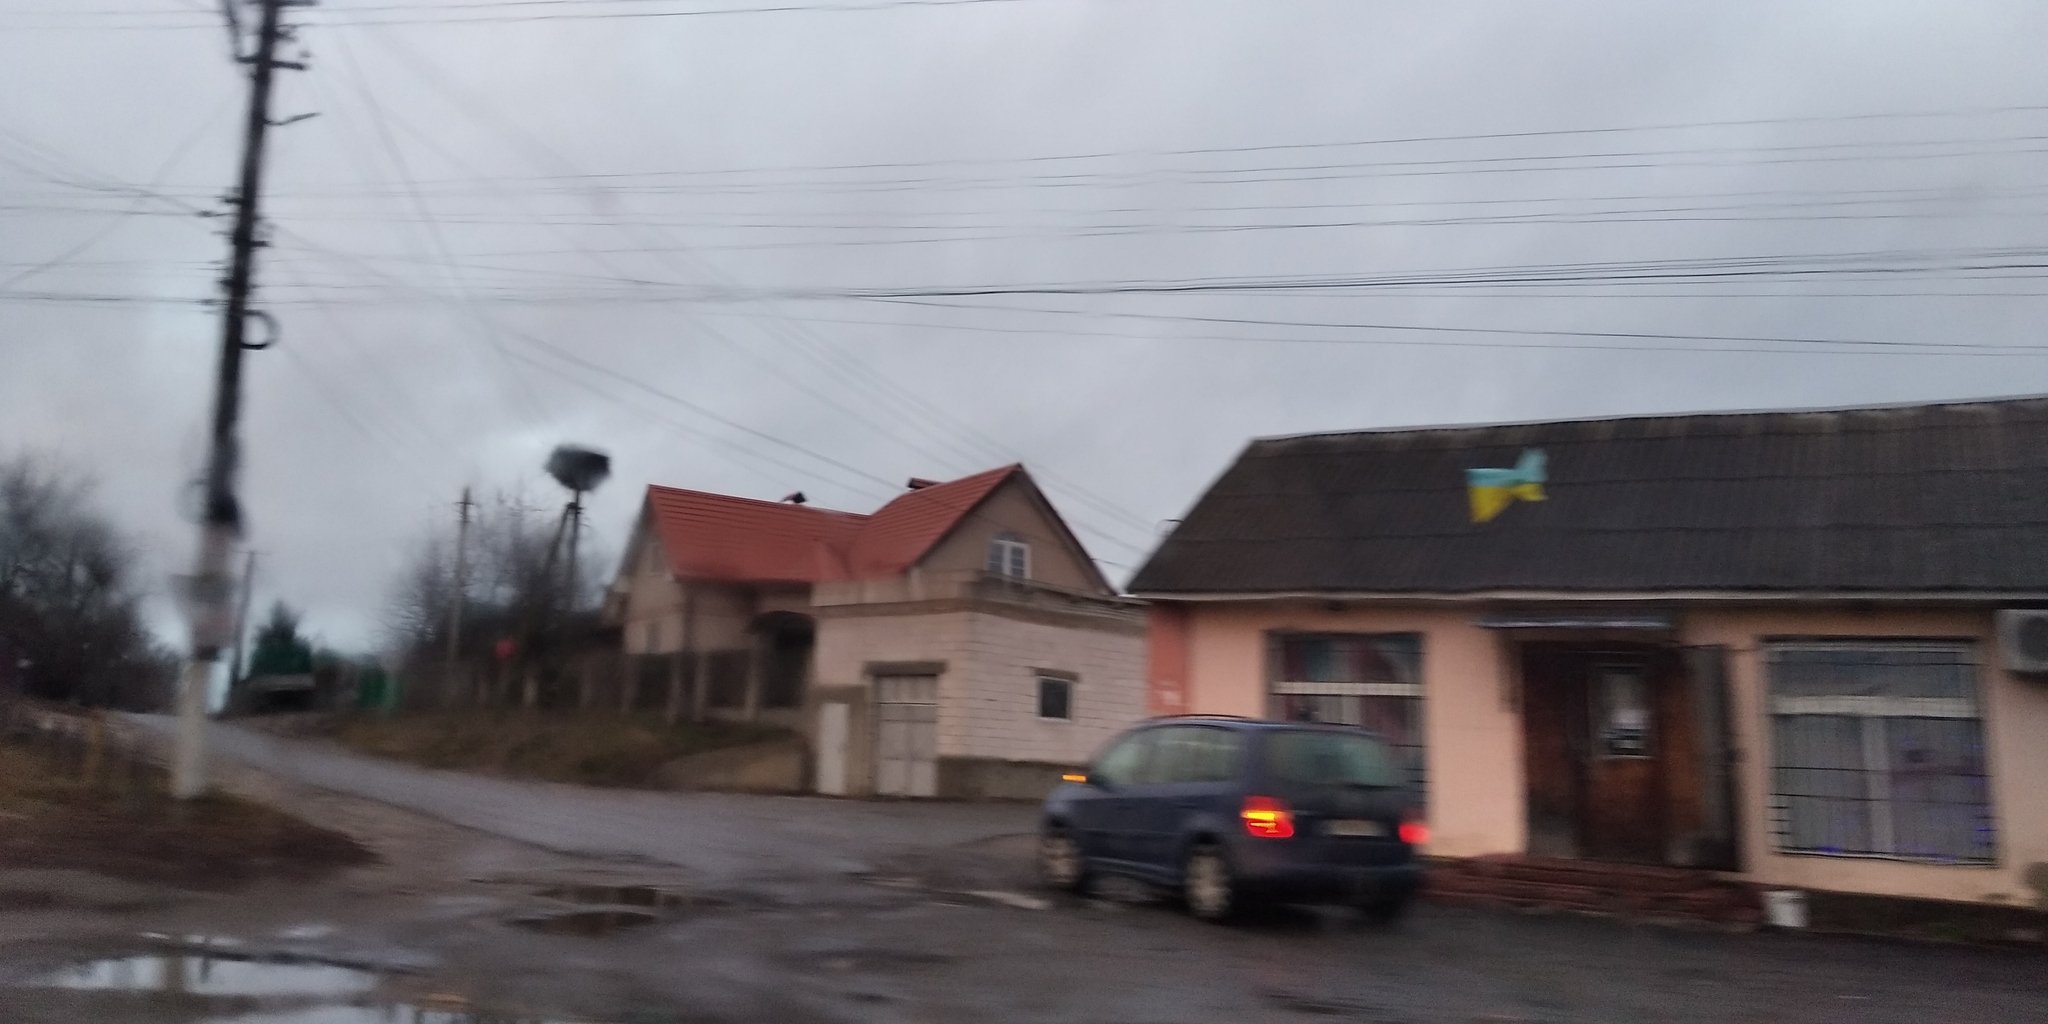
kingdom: Animalia
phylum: Chordata
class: Aves
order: Ciconiiformes
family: Ciconiidae
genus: Ciconia
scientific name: Ciconia ciconia
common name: White stork
